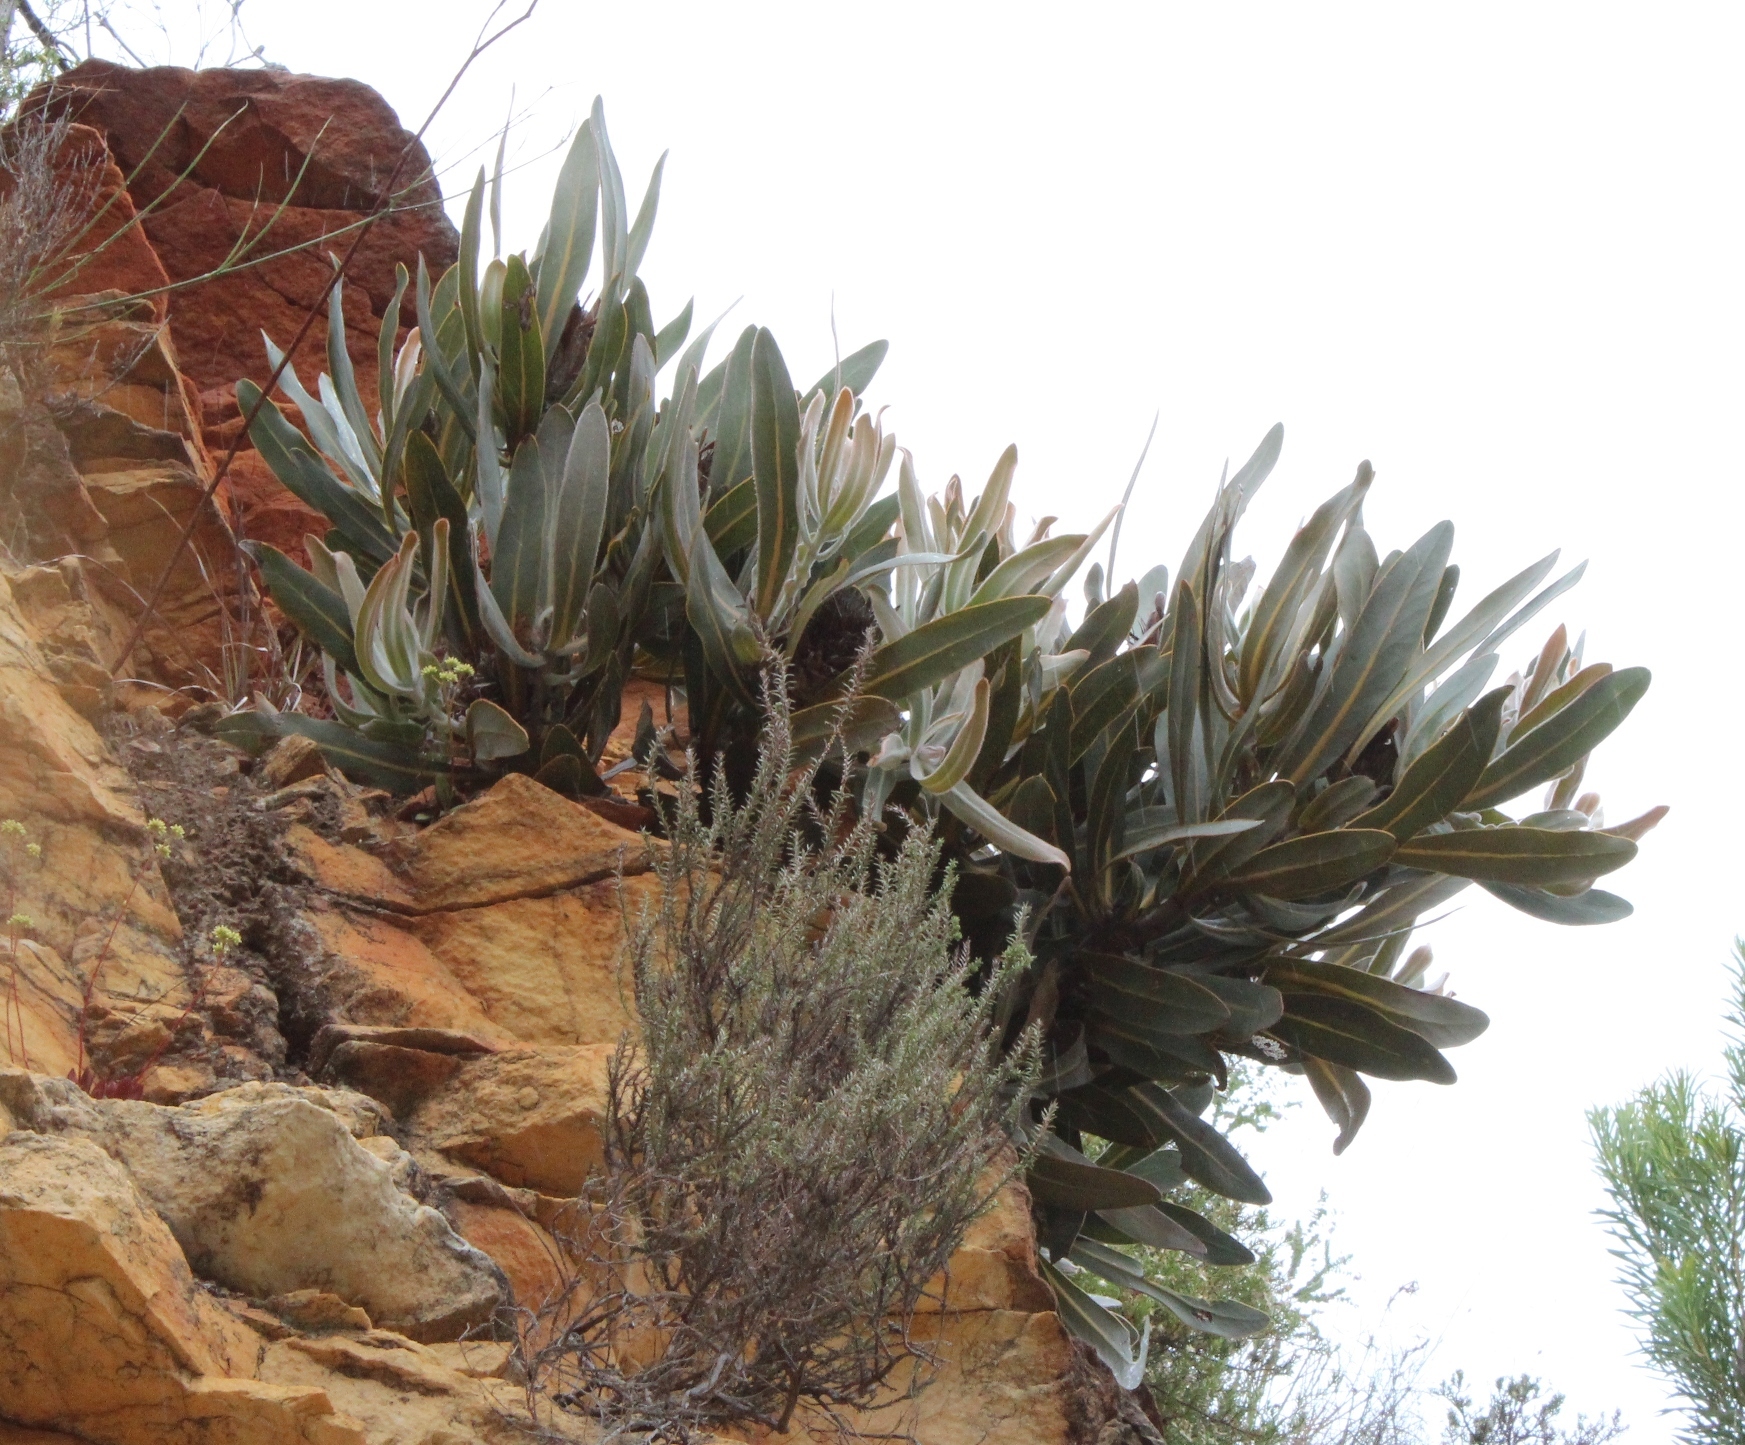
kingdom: Plantae
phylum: Tracheophyta
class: Magnoliopsida
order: Proteales
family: Proteaceae
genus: Protea
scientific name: Protea lorifolia
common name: Strap-leaved protea
